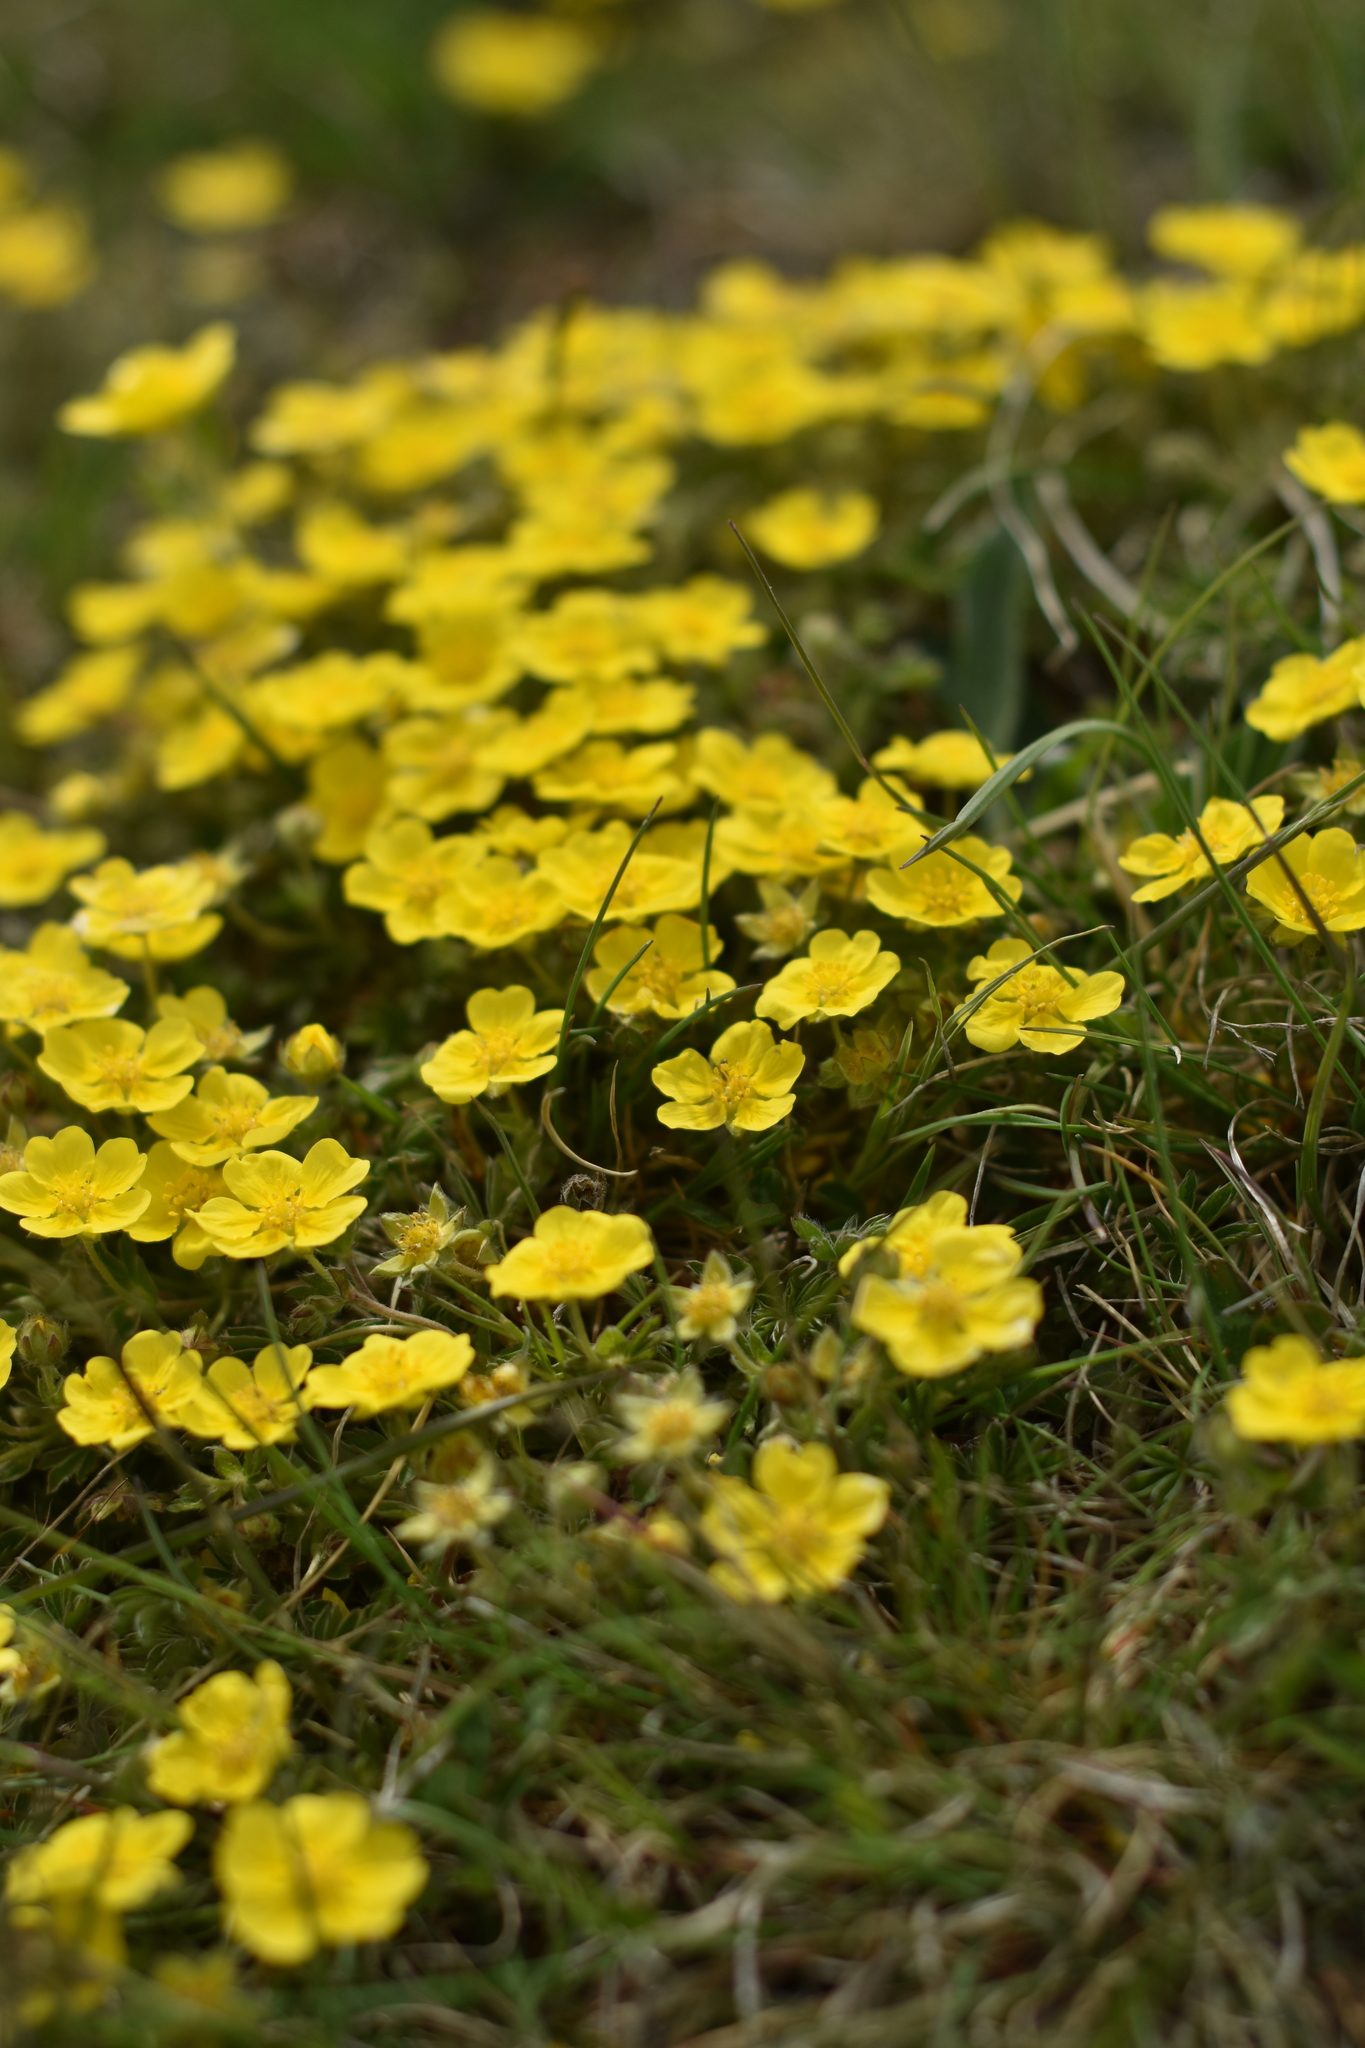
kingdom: Plantae
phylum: Tracheophyta
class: Magnoliopsida
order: Malvales
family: Cistaceae
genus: Helianthemum
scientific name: Helianthemum nummularium
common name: Common rock-rose
